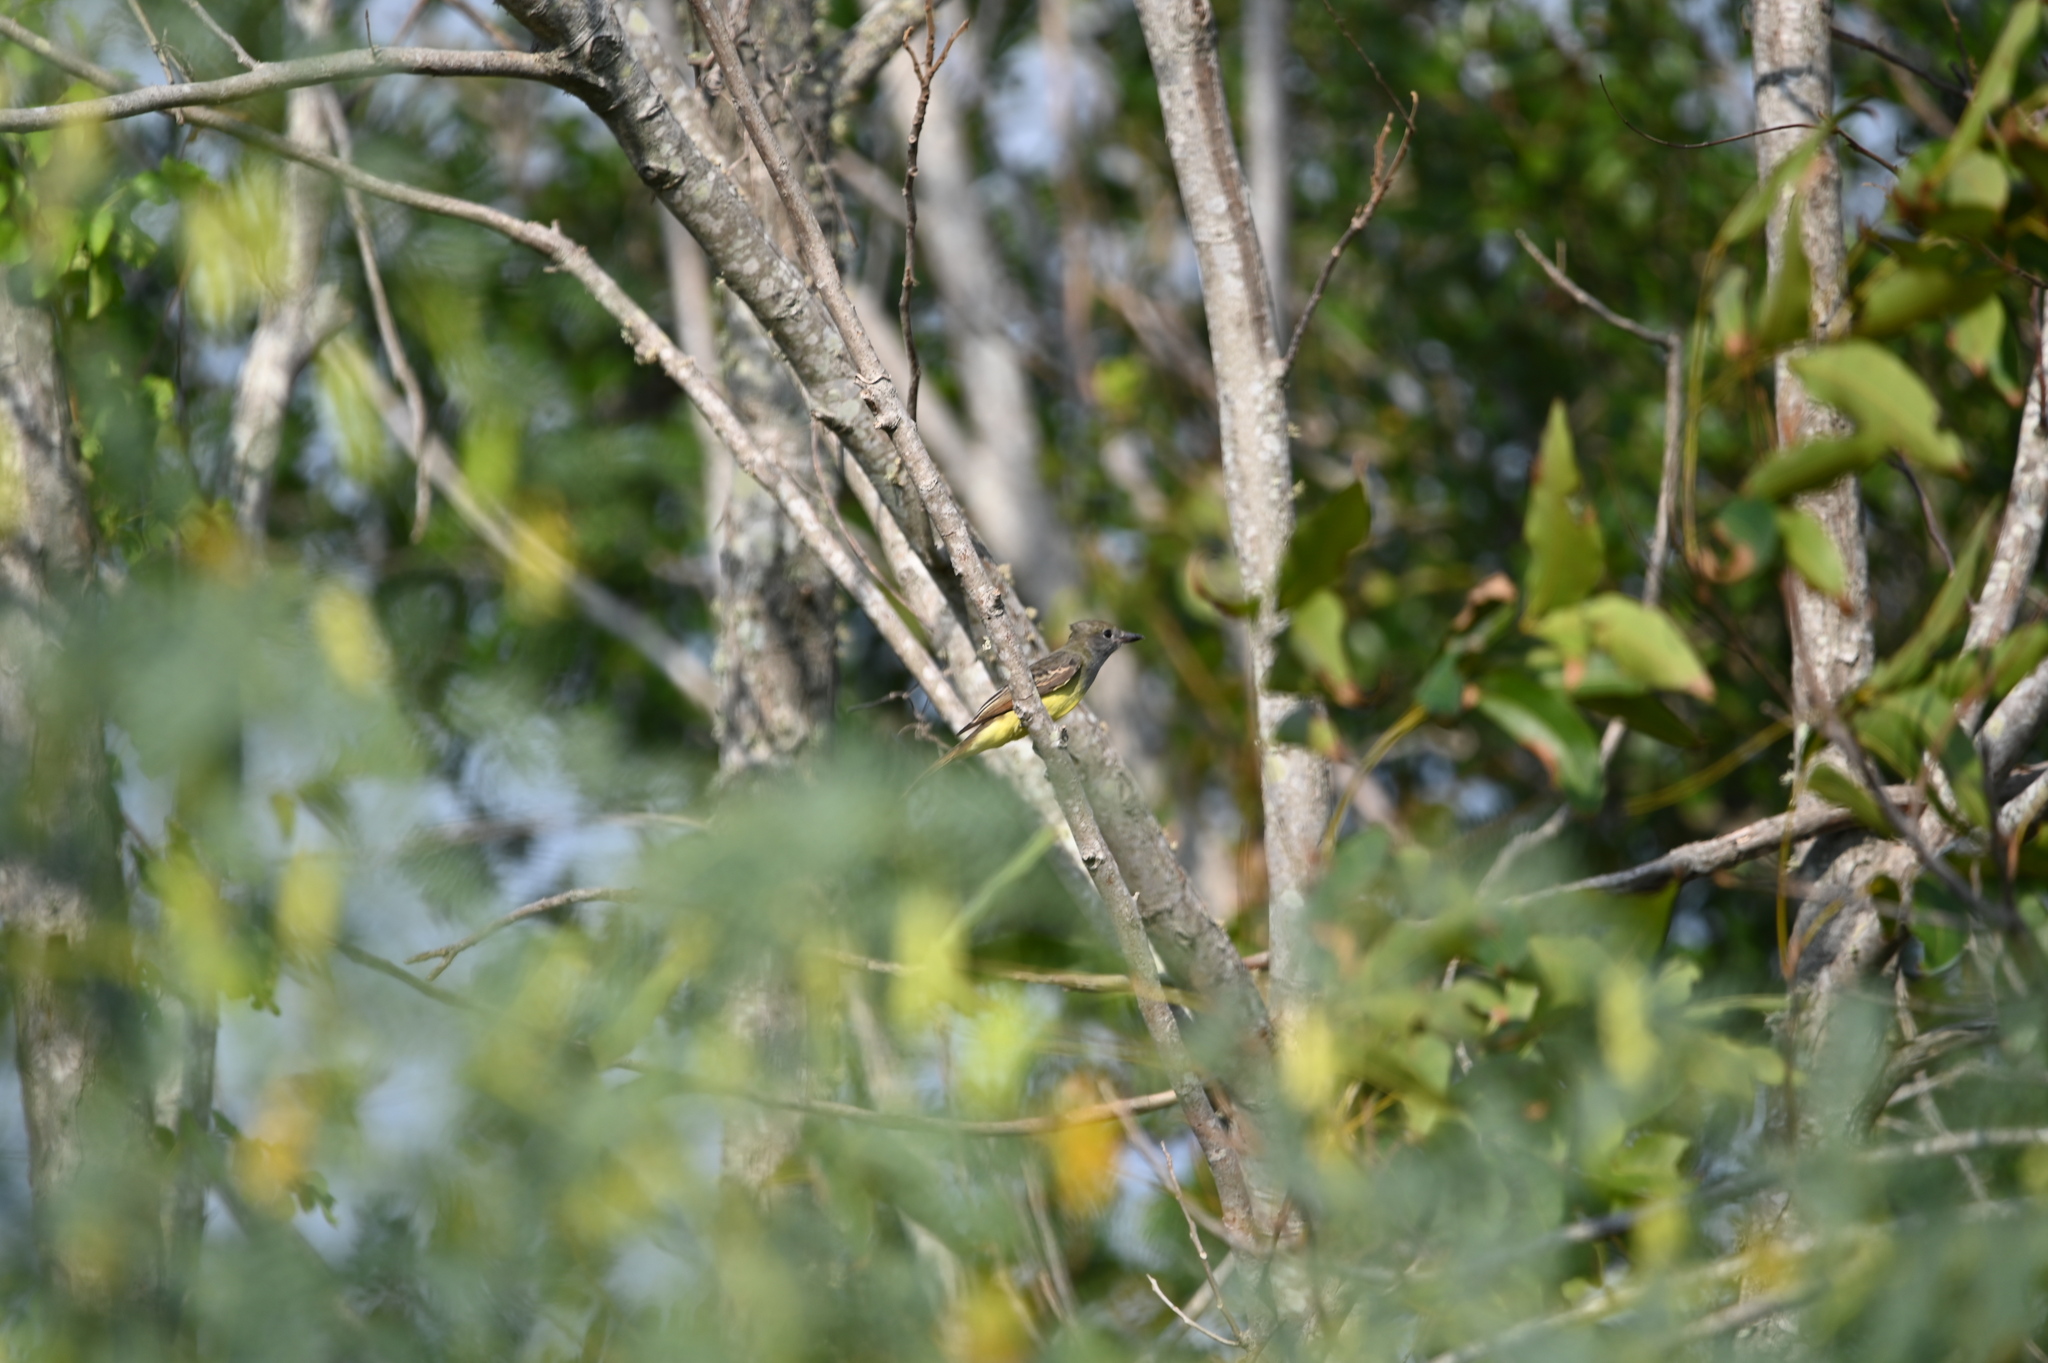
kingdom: Animalia
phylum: Chordata
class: Aves
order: Passeriformes
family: Tyrannidae
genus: Myiarchus
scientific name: Myiarchus crinitus
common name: Great crested flycatcher
